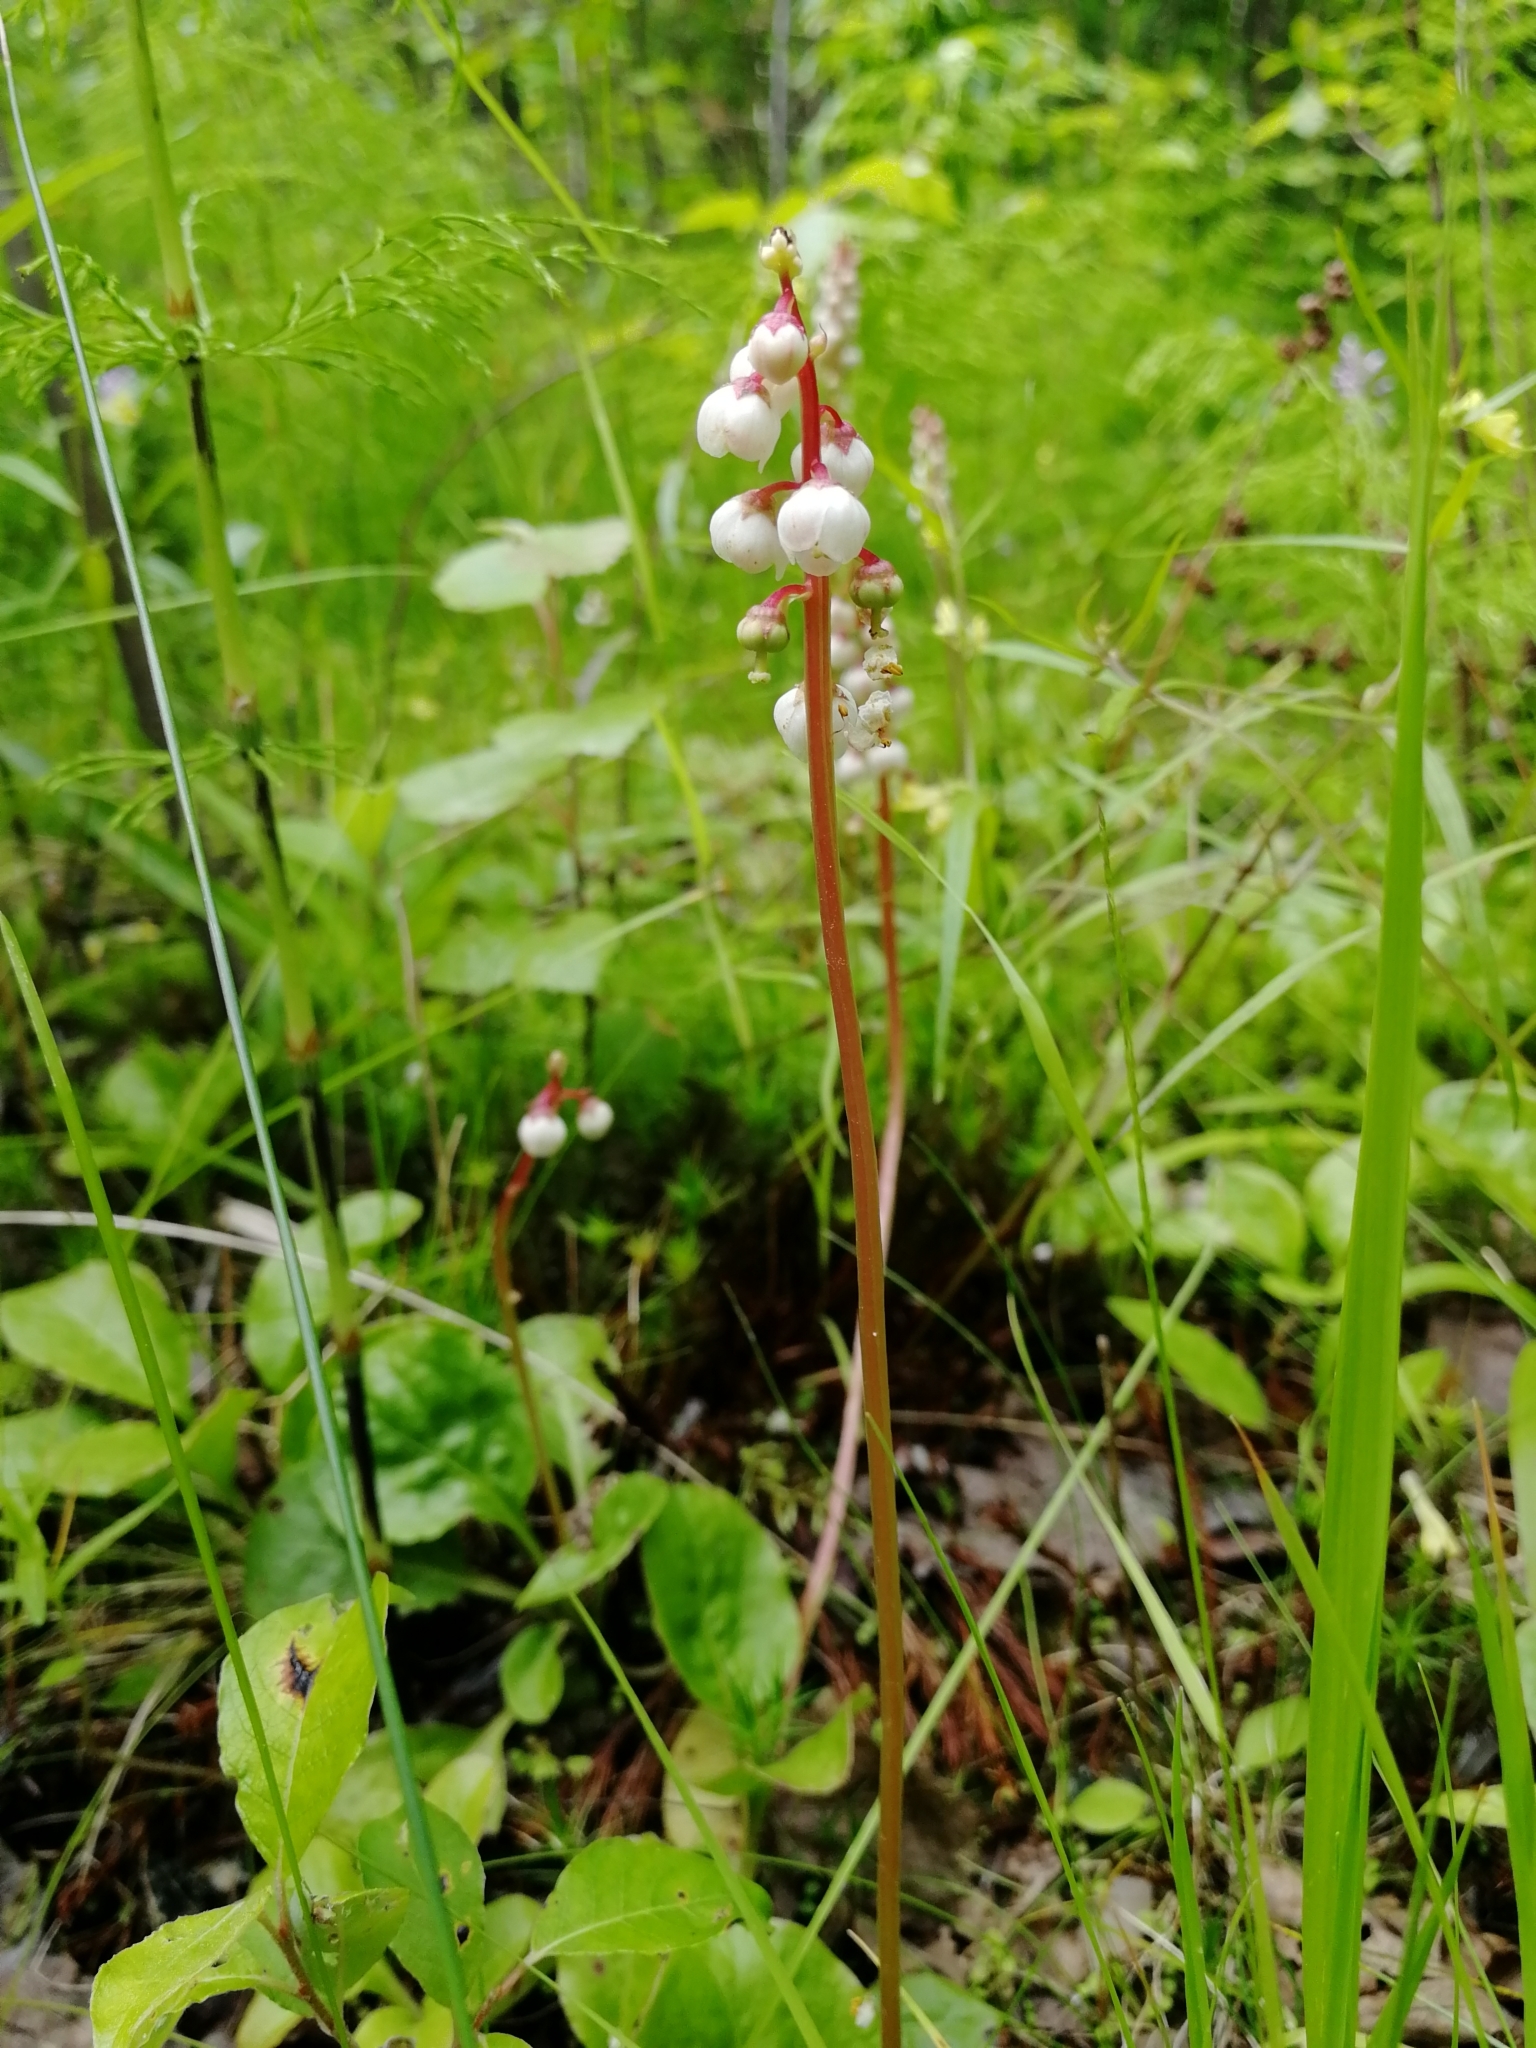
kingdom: Plantae
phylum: Tracheophyta
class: Magnoliopsida
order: Ericales
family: Ericaceae
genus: Pyrola
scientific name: Pyrola minor
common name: Common wintergreen
